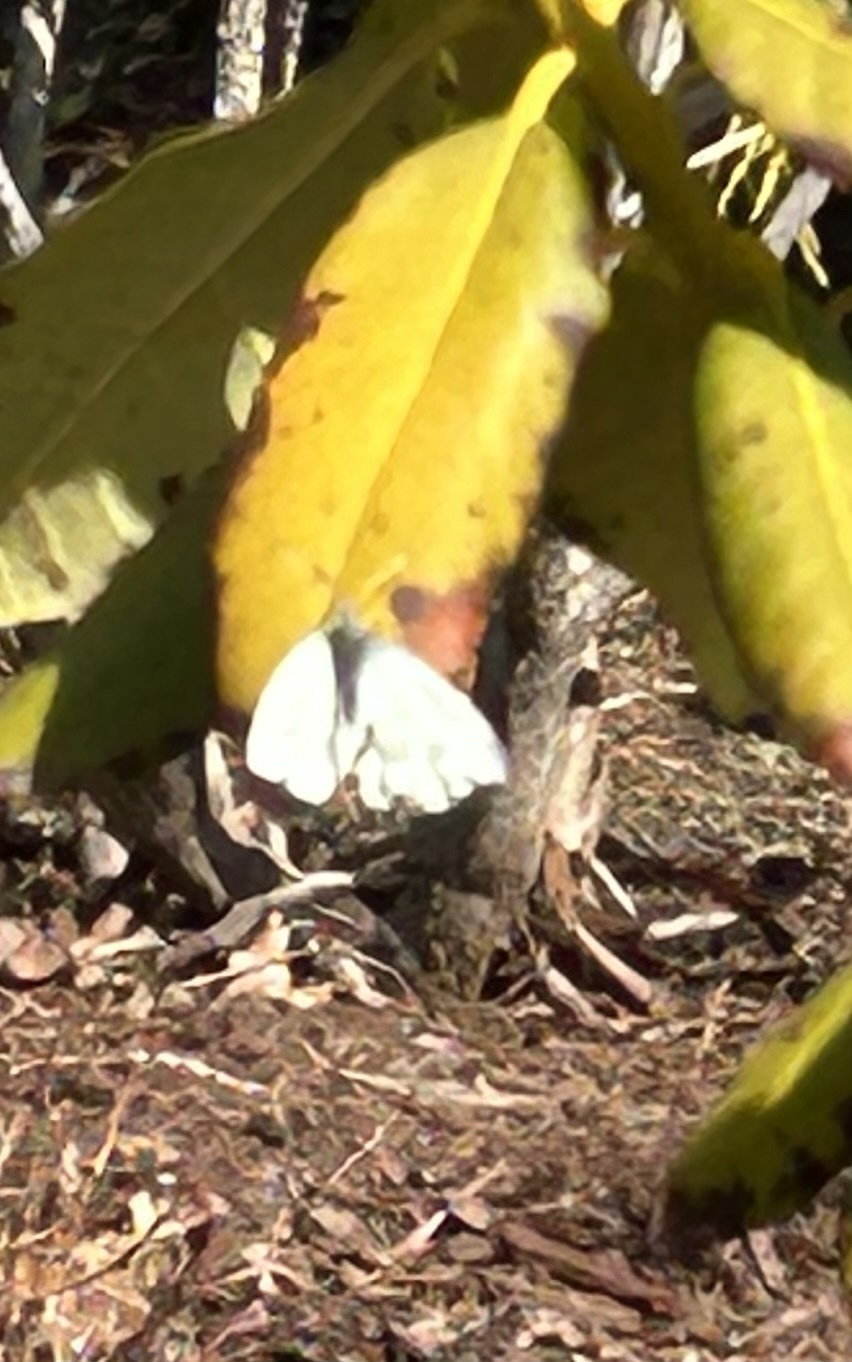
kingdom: Animalia
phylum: Arthropoda
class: Insecta
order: Lepidoptera
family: Pieridae
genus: Pieris
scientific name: Pieris rapae
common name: Small white
